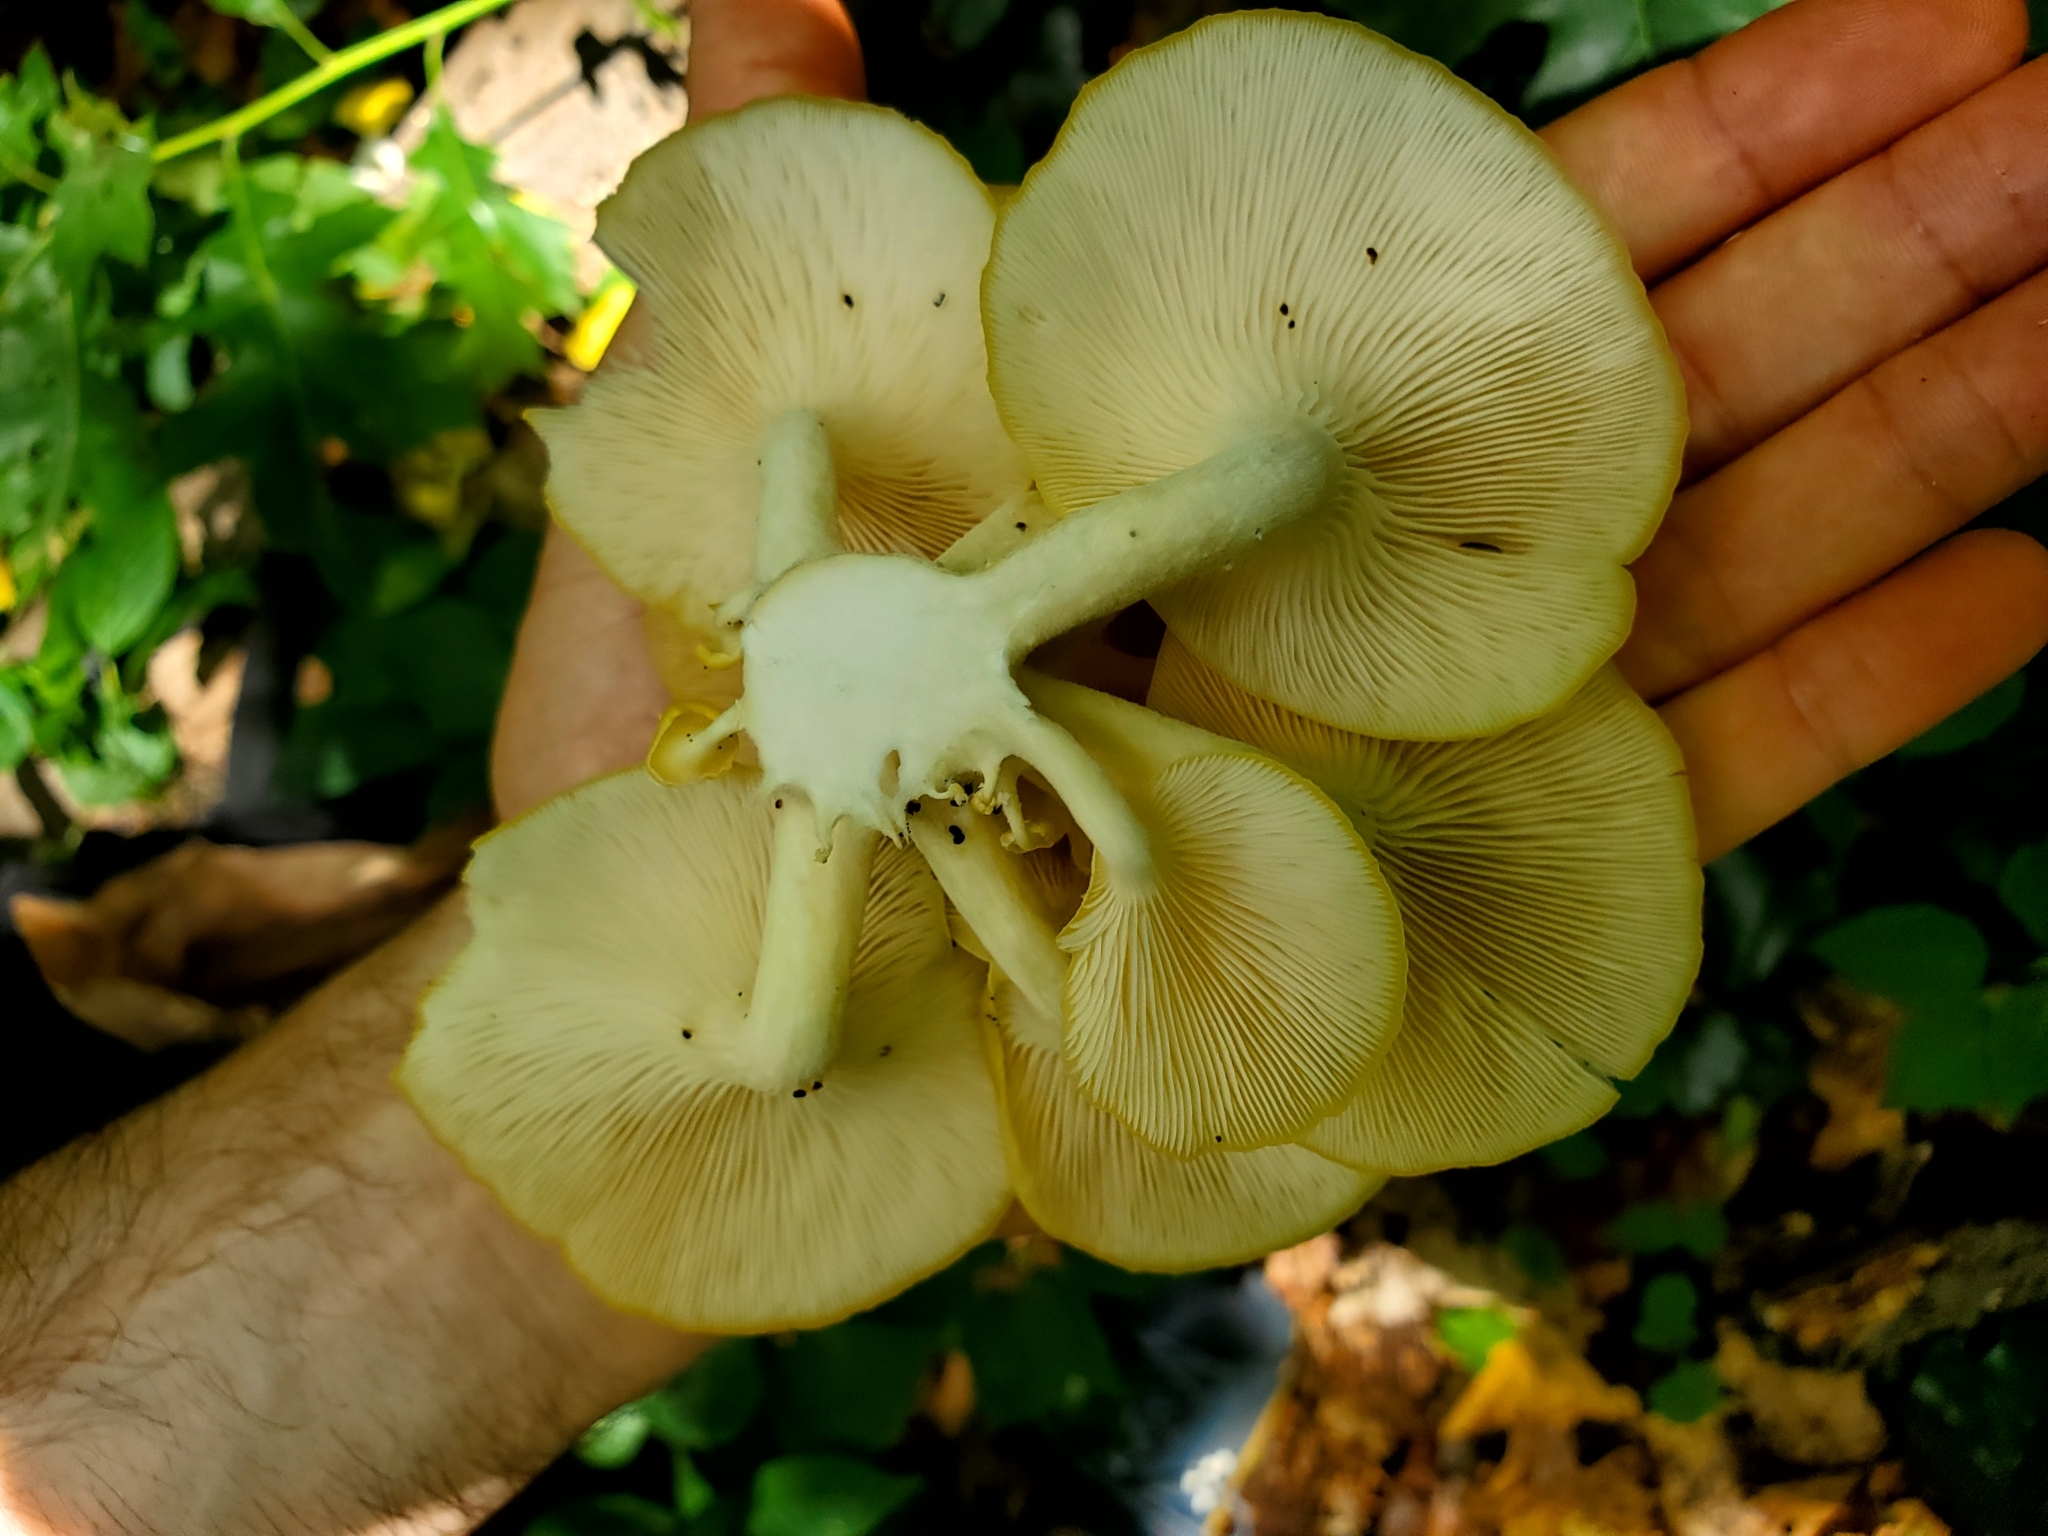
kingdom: Fungi
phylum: Basidiomycota
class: Agaricomycetes
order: Agaricales
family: Pleurotaceae
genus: Pleurotus
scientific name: Pleurotus citrinopileatus
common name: Golden oyster mushroom
